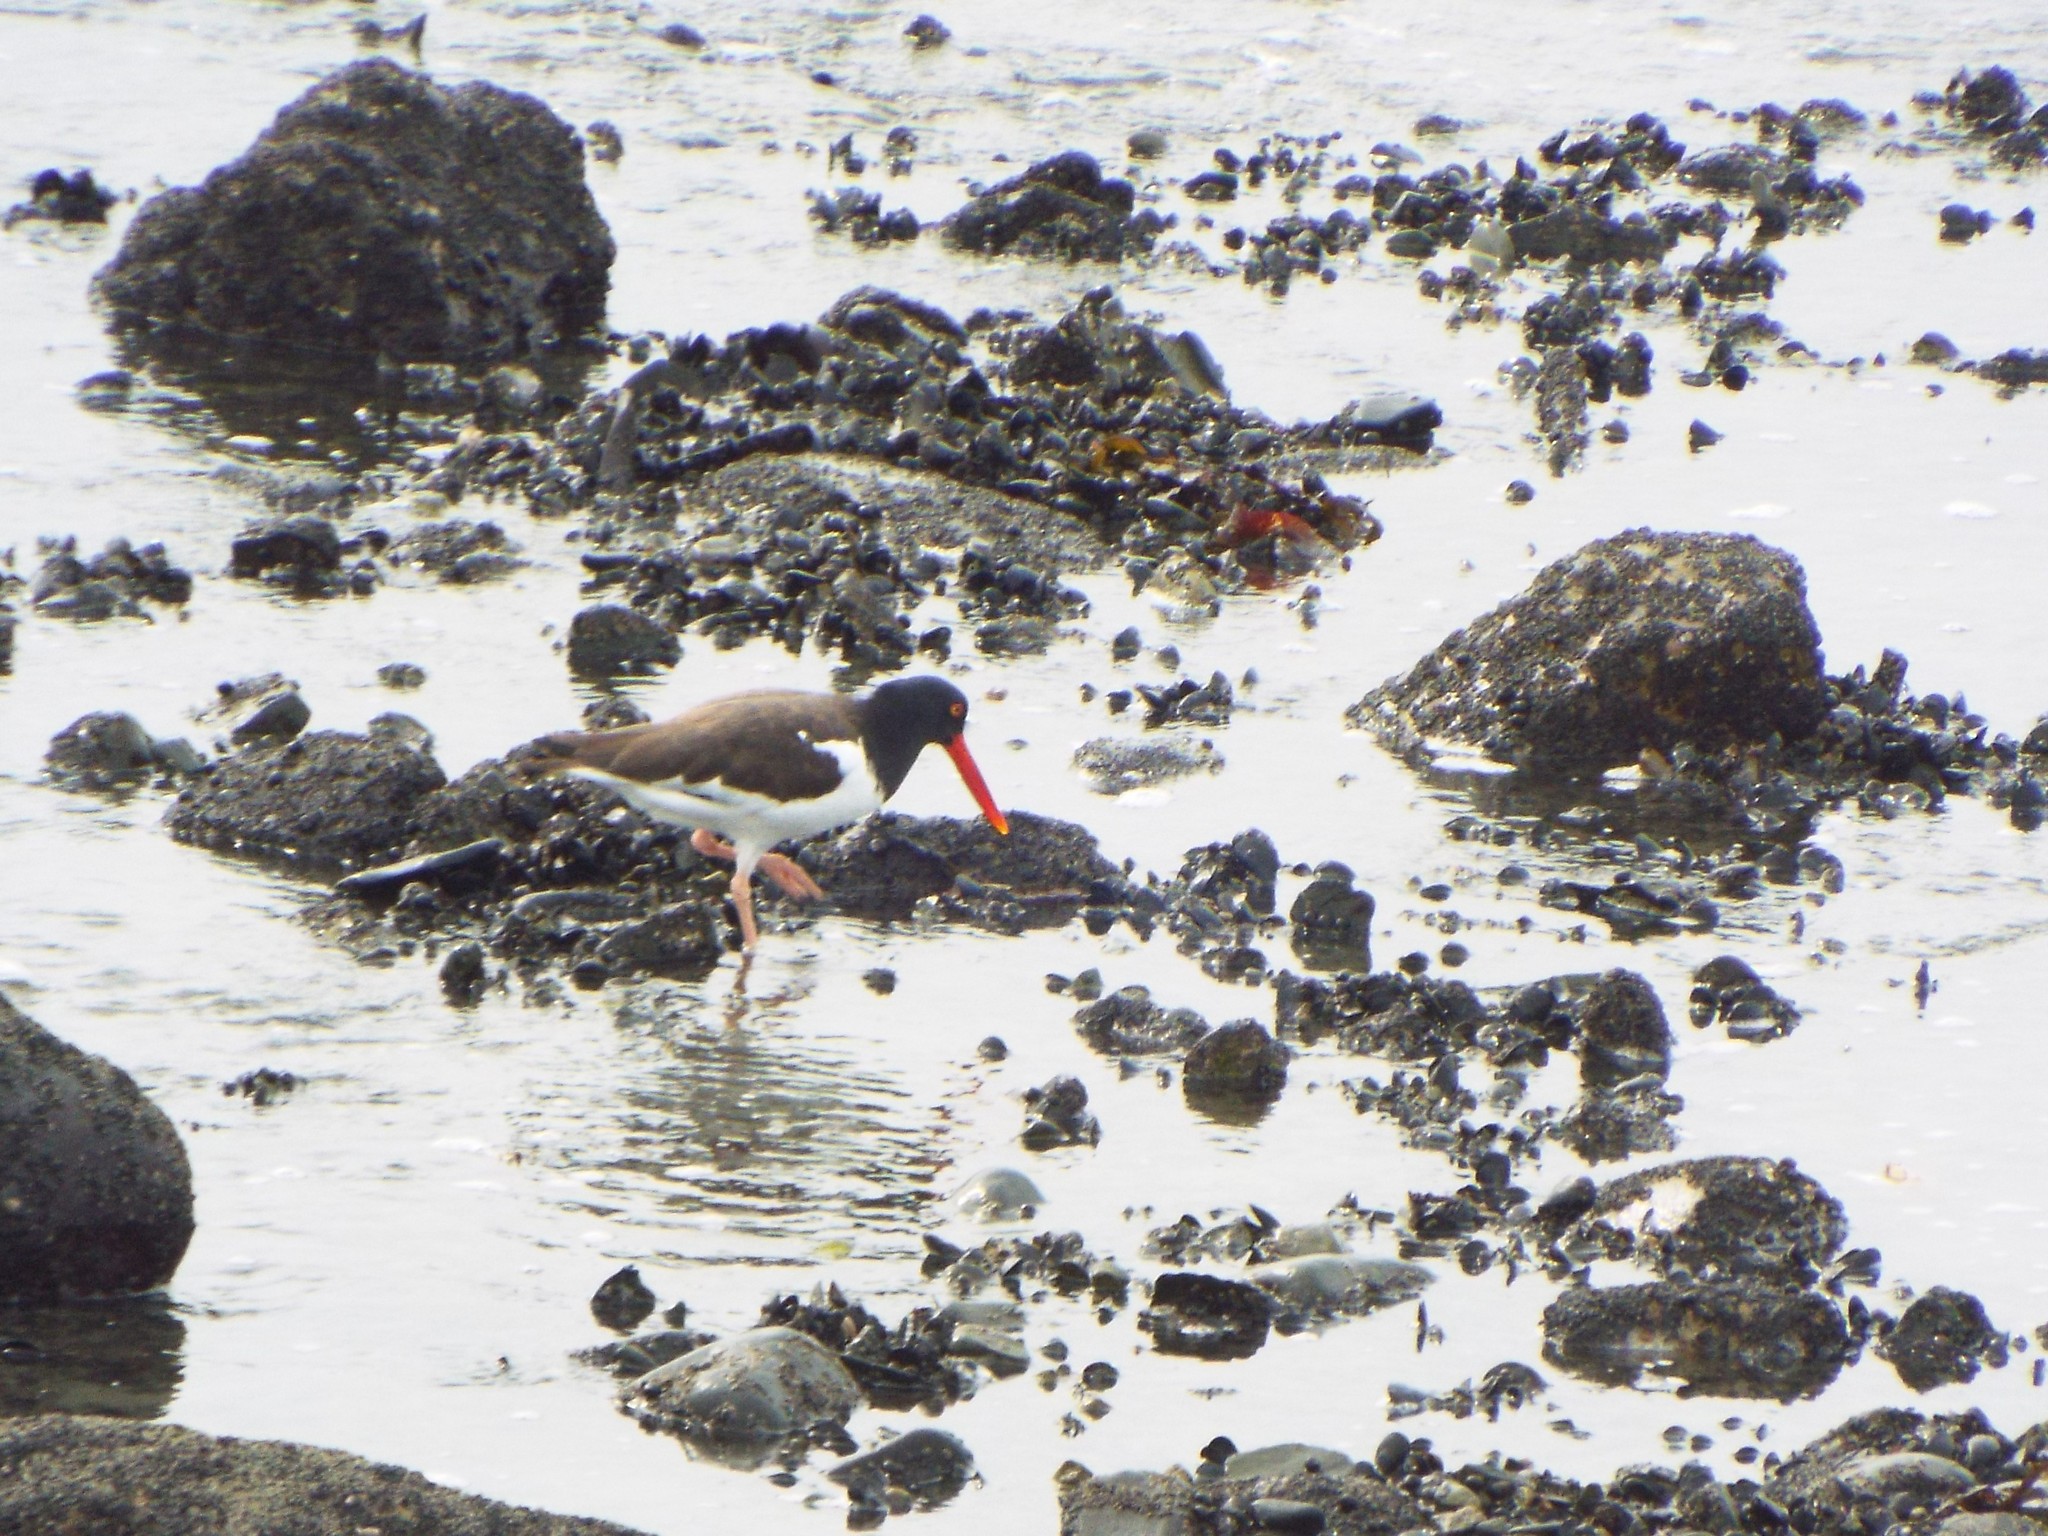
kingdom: Animalia
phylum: Chordata
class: Aves
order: Charadriiformes
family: Haematopodidae
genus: Haematopus
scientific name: Haematopus palliatus
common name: American oystercatcher
